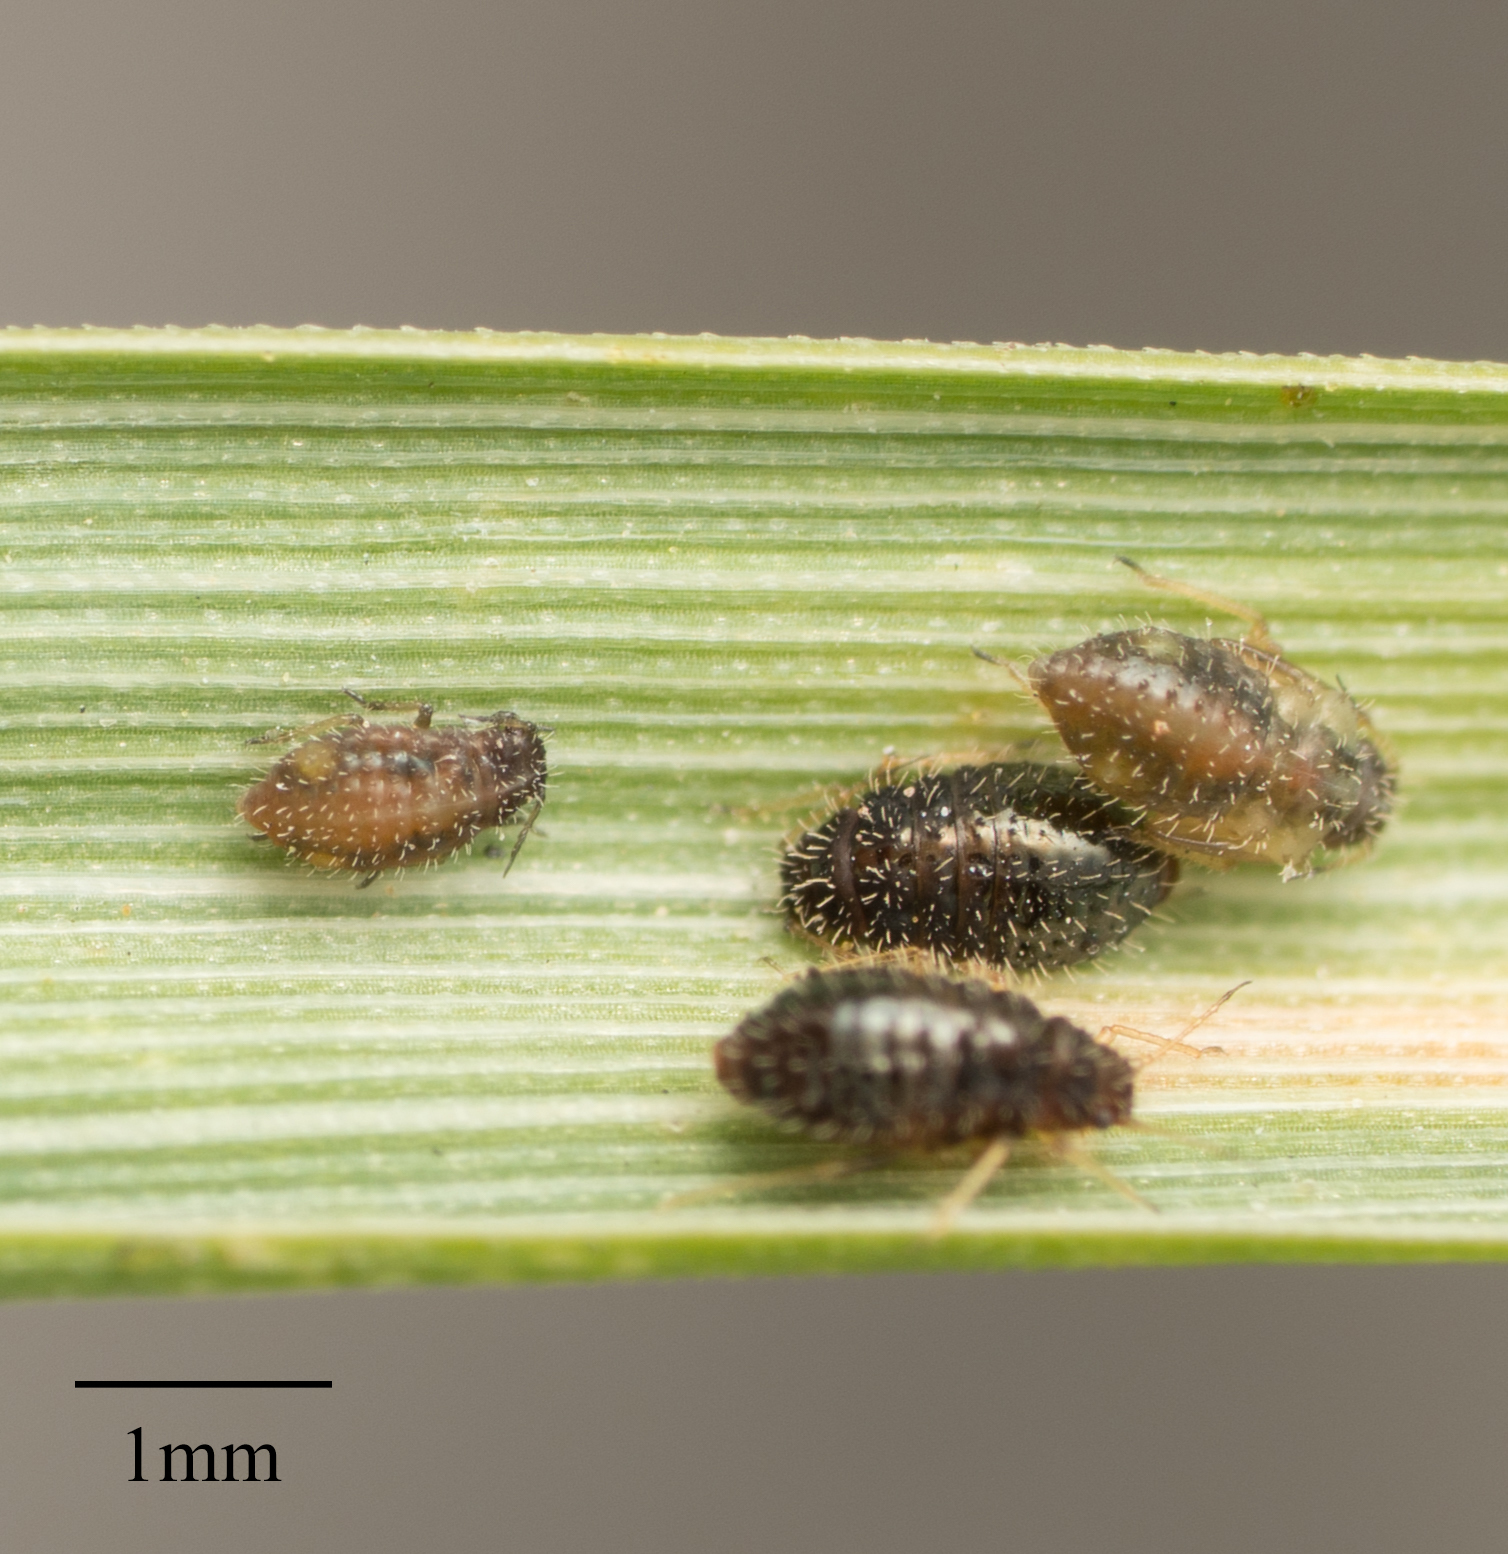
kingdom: Animalia
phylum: Arthropoda
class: Insecta
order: Hemiptera
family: Aphididae
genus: Sipha
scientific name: Sipha maydis
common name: Aphid
